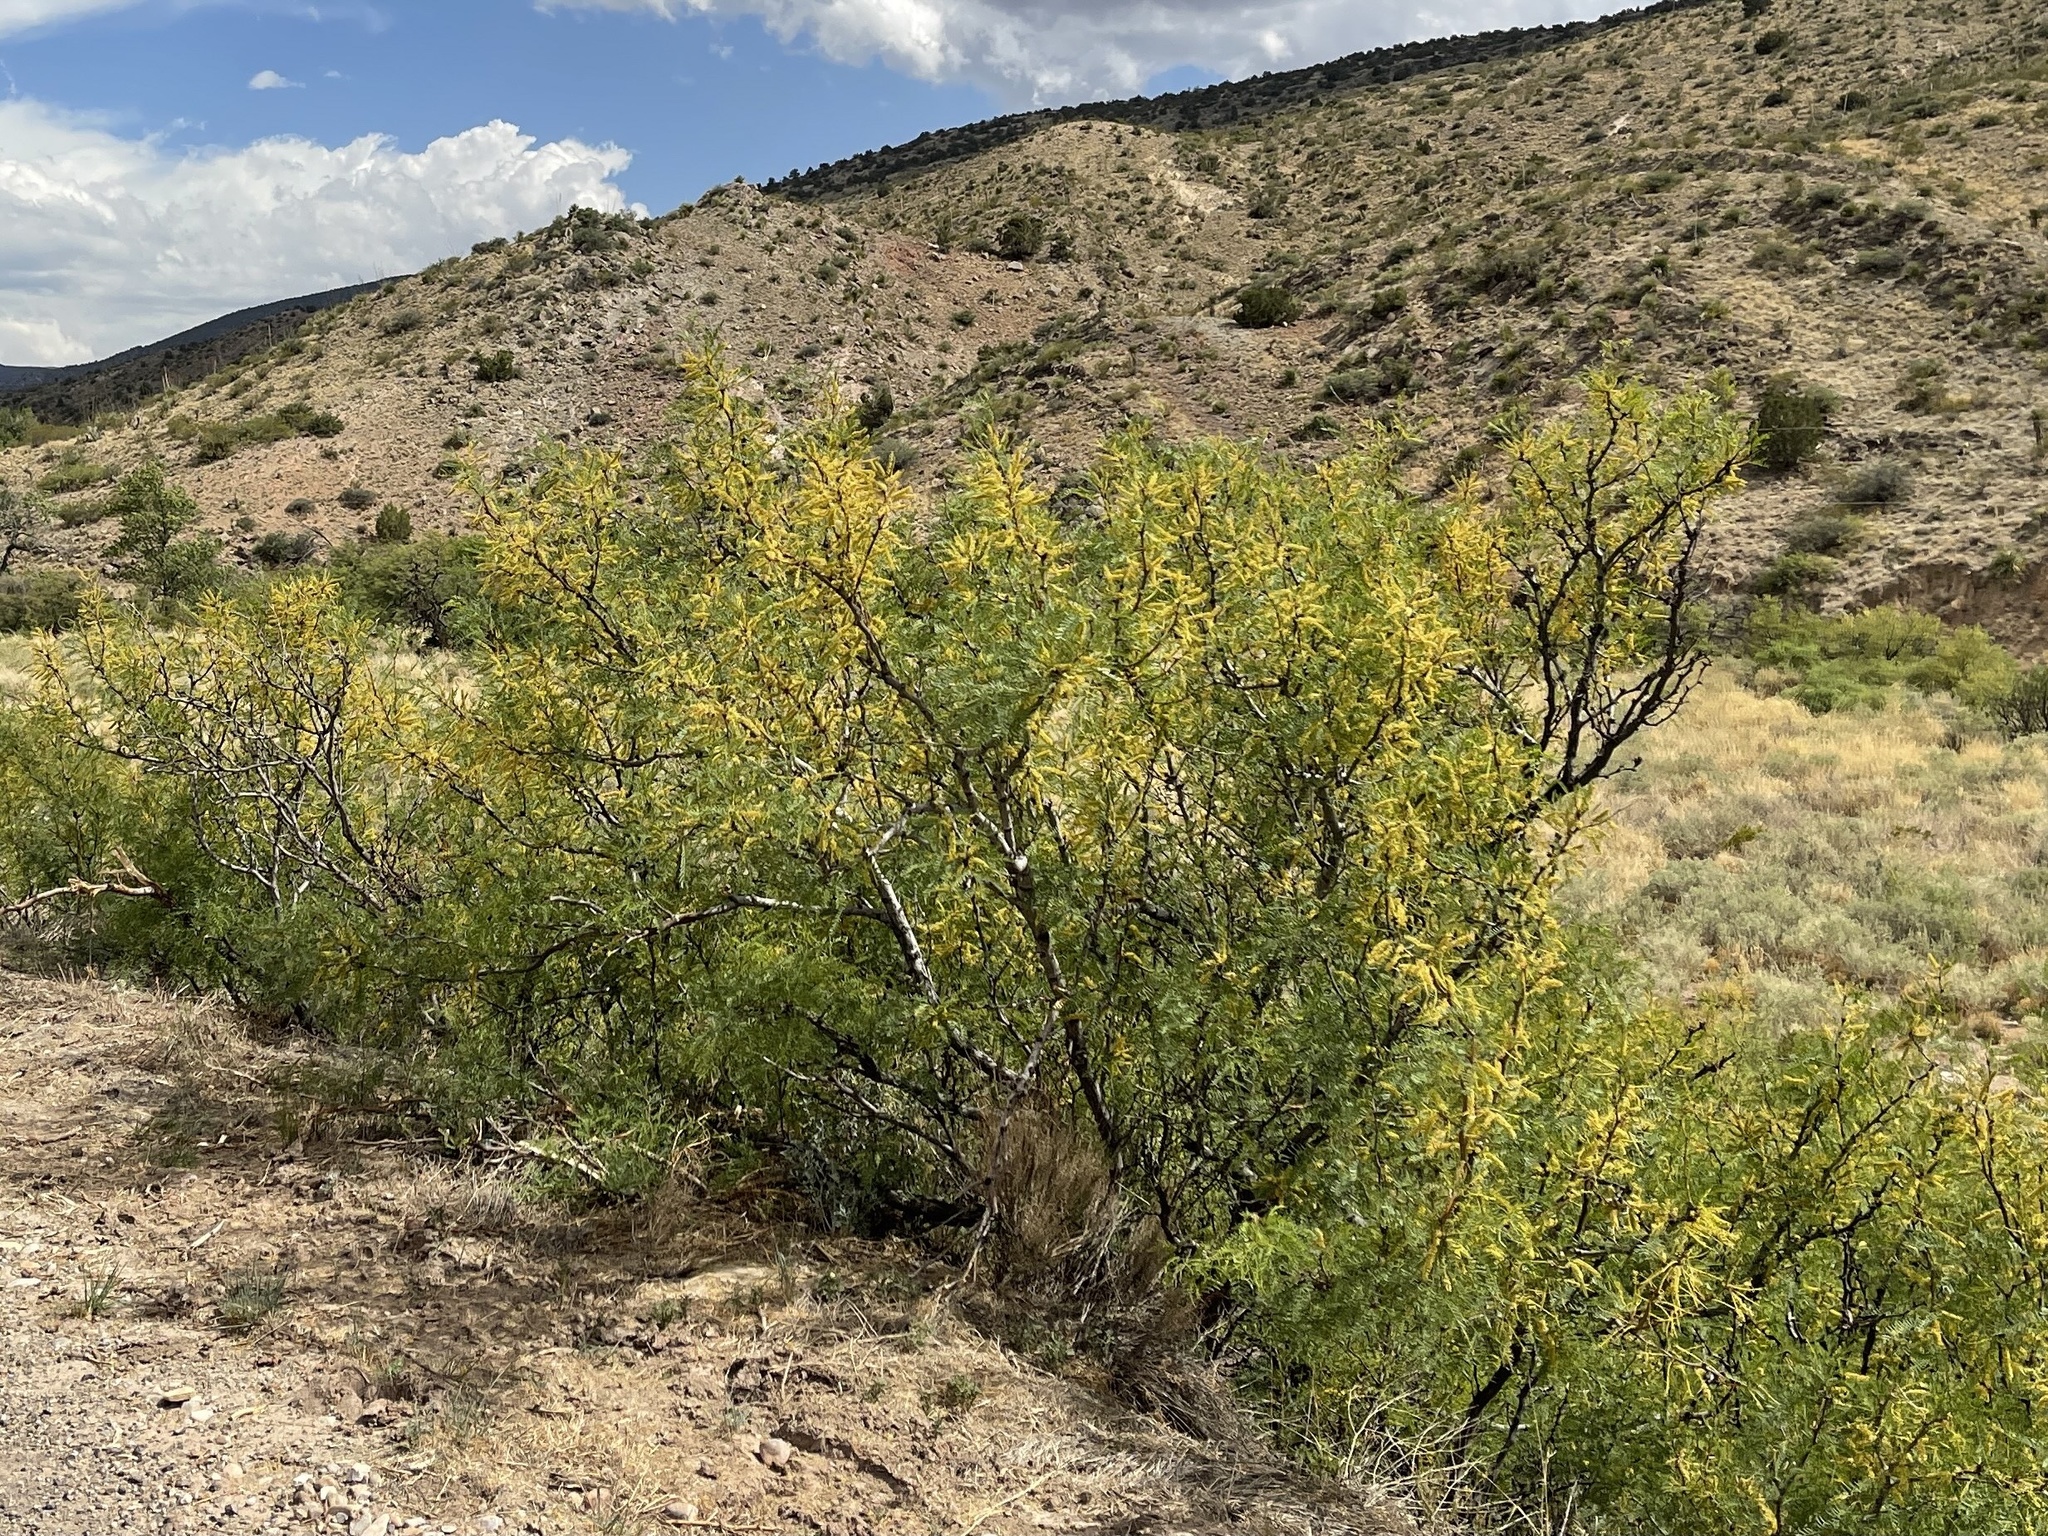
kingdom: Plantae
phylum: Tracheophyta
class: Magnoliopsida
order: Fabales
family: Fabaceae
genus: Prosopis
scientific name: Prosopis glandulosa
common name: Honey mesquite
